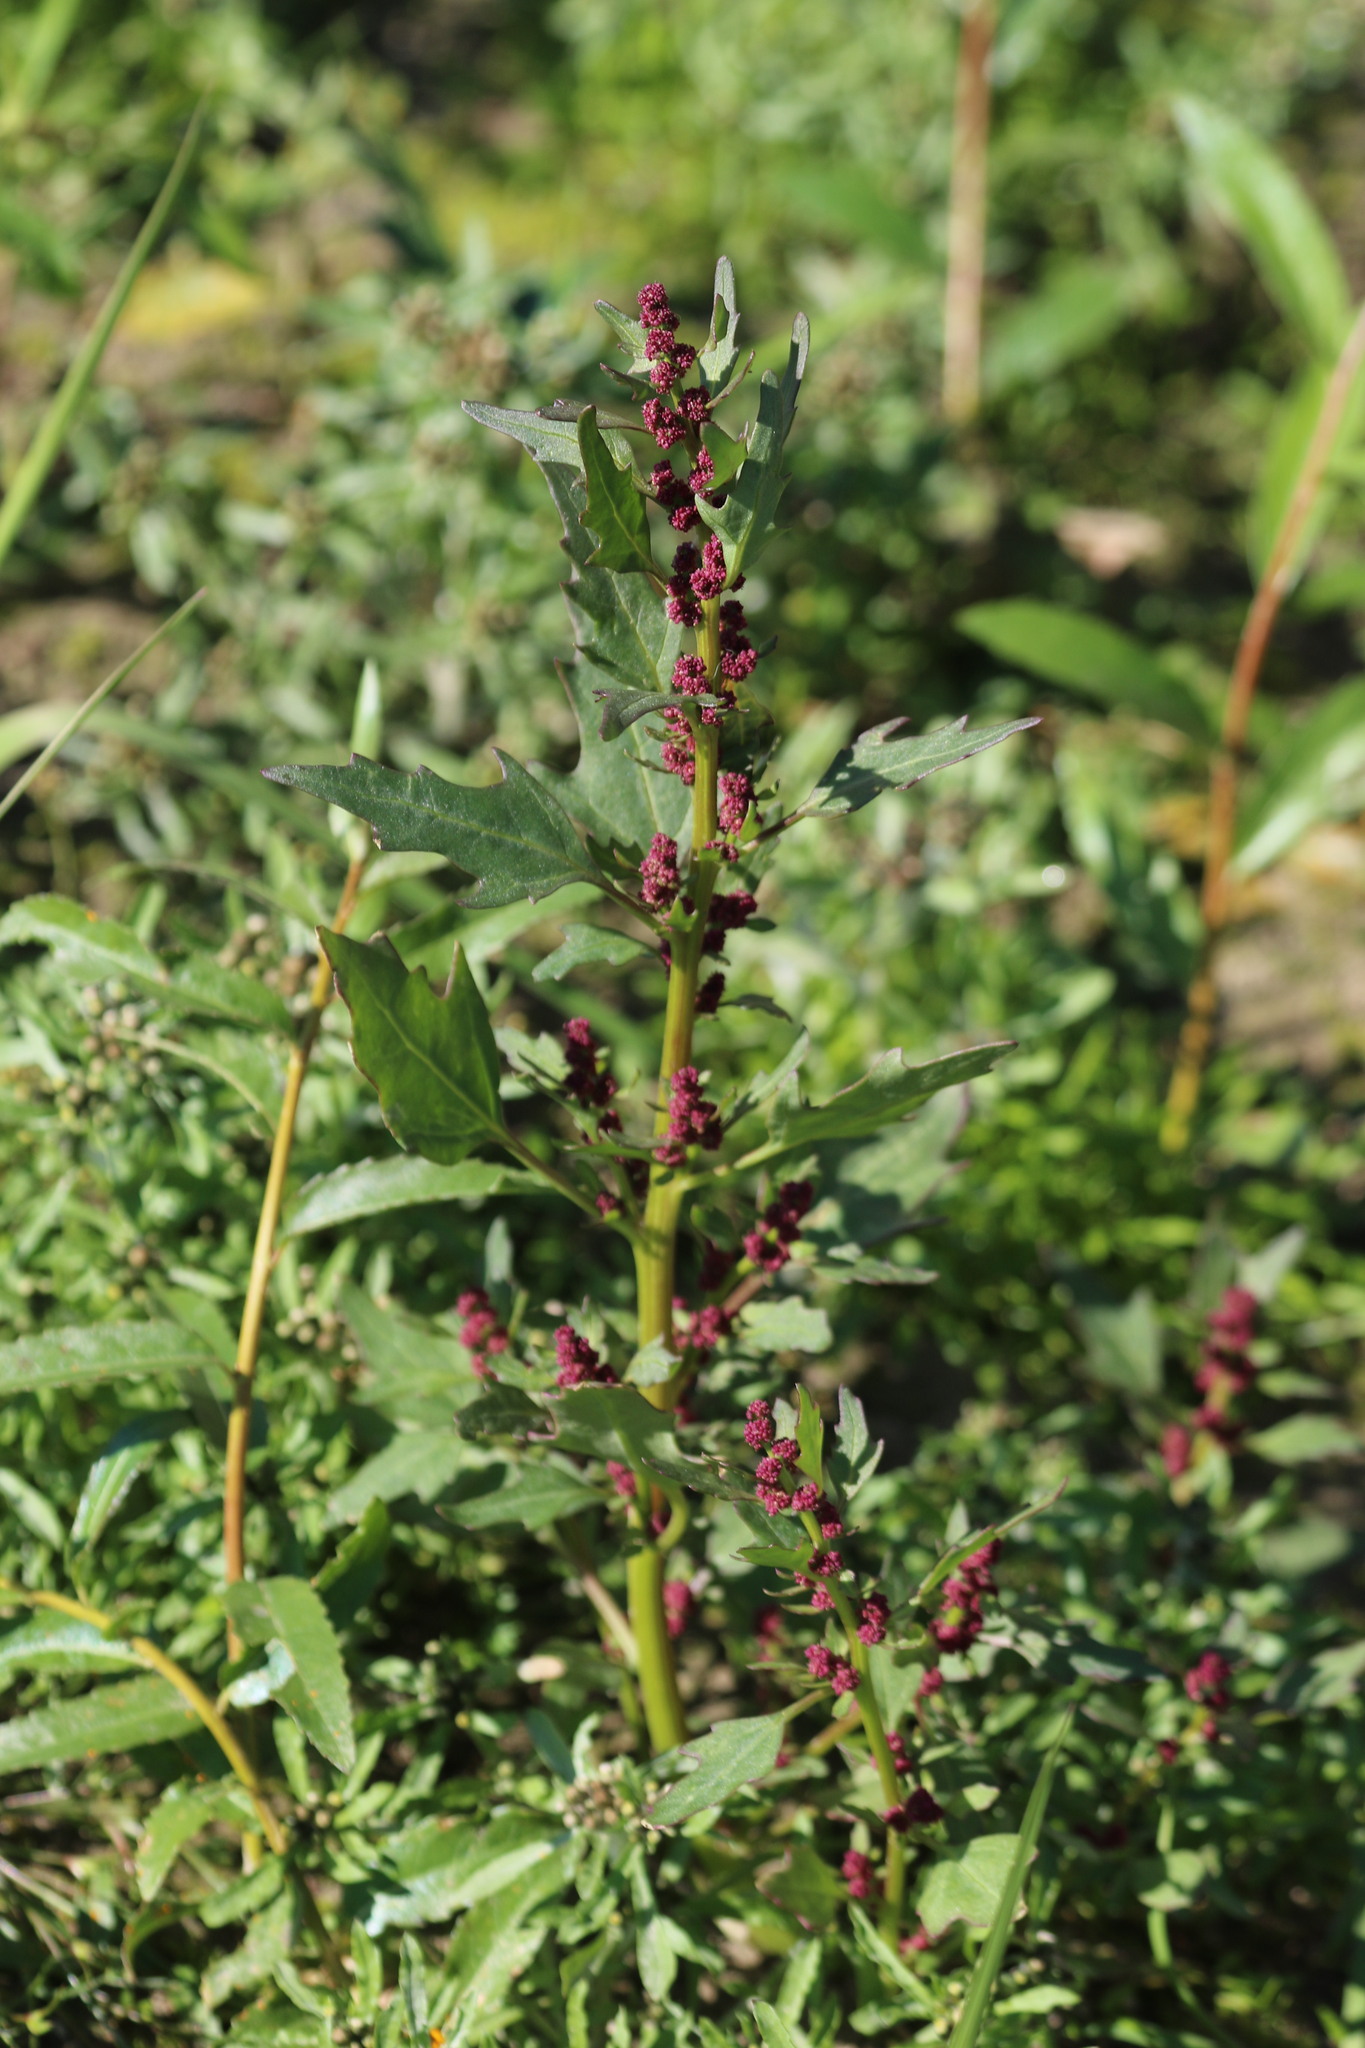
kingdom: Plantae
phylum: Tracheophyta
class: Magnoliopsida
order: Caryophyllales
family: Amaranthaceae
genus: Oxybasis
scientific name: Oxybasis rubra
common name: Red goosefoot
